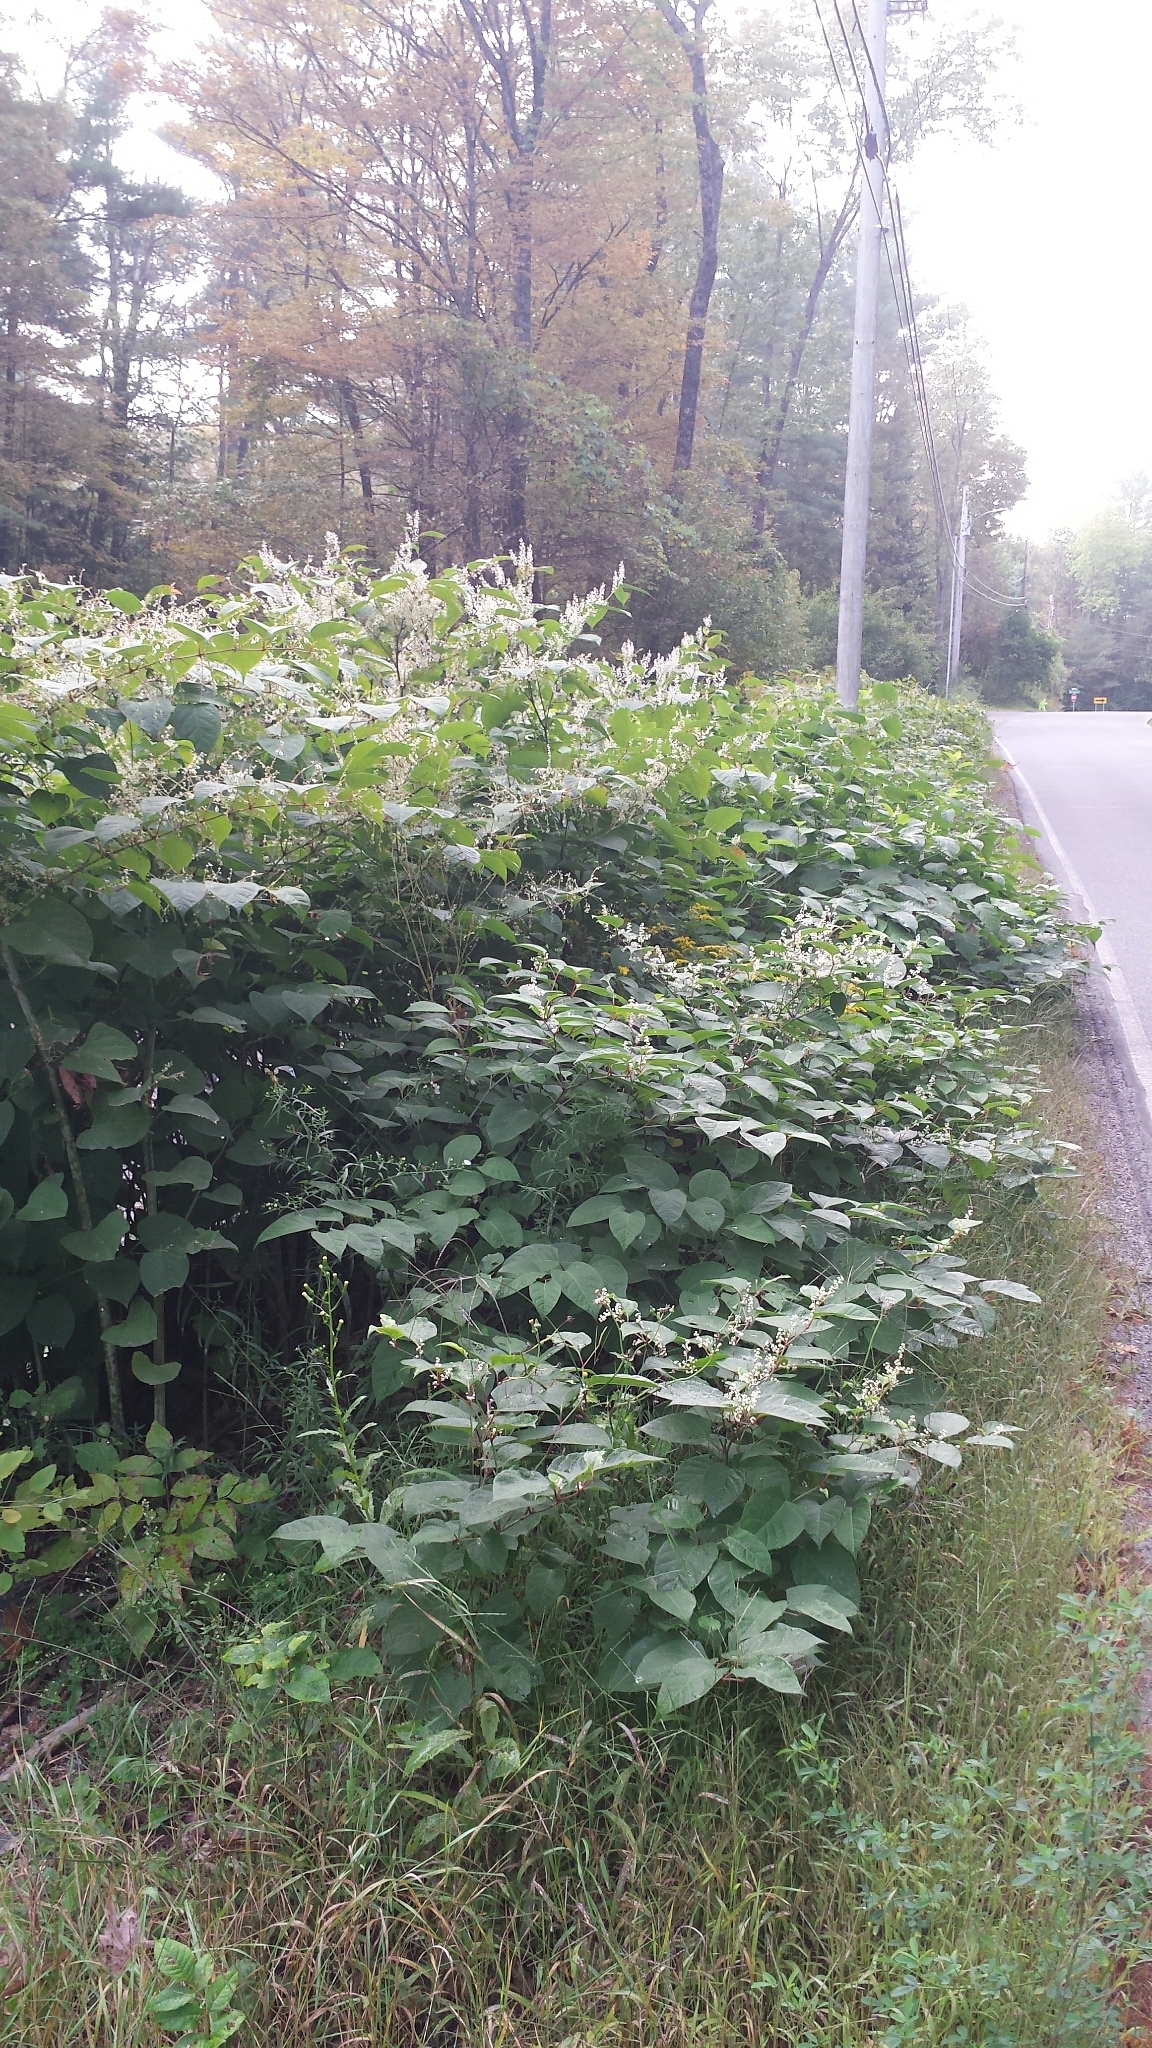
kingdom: Plantae
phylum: Tracheophyta
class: Magnoliopsida
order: Caryophyllales
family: Polygonaceae
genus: Reynoutria
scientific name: Reynoutria japonica
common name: Japanese knotweed
